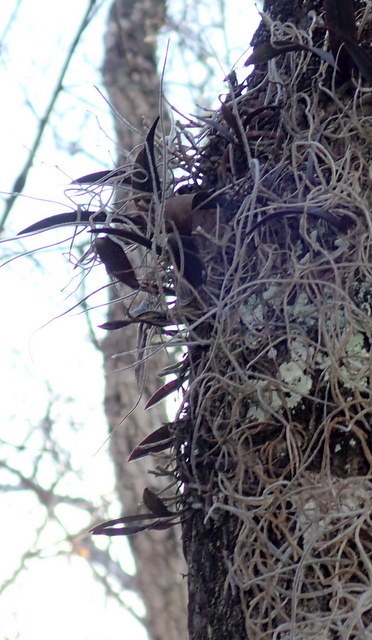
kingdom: Plantae
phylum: Tracheophyta
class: Liliopsida
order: Asparagales
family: Orchidaceae
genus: Epidendrum
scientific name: Epidendrum conopseum
